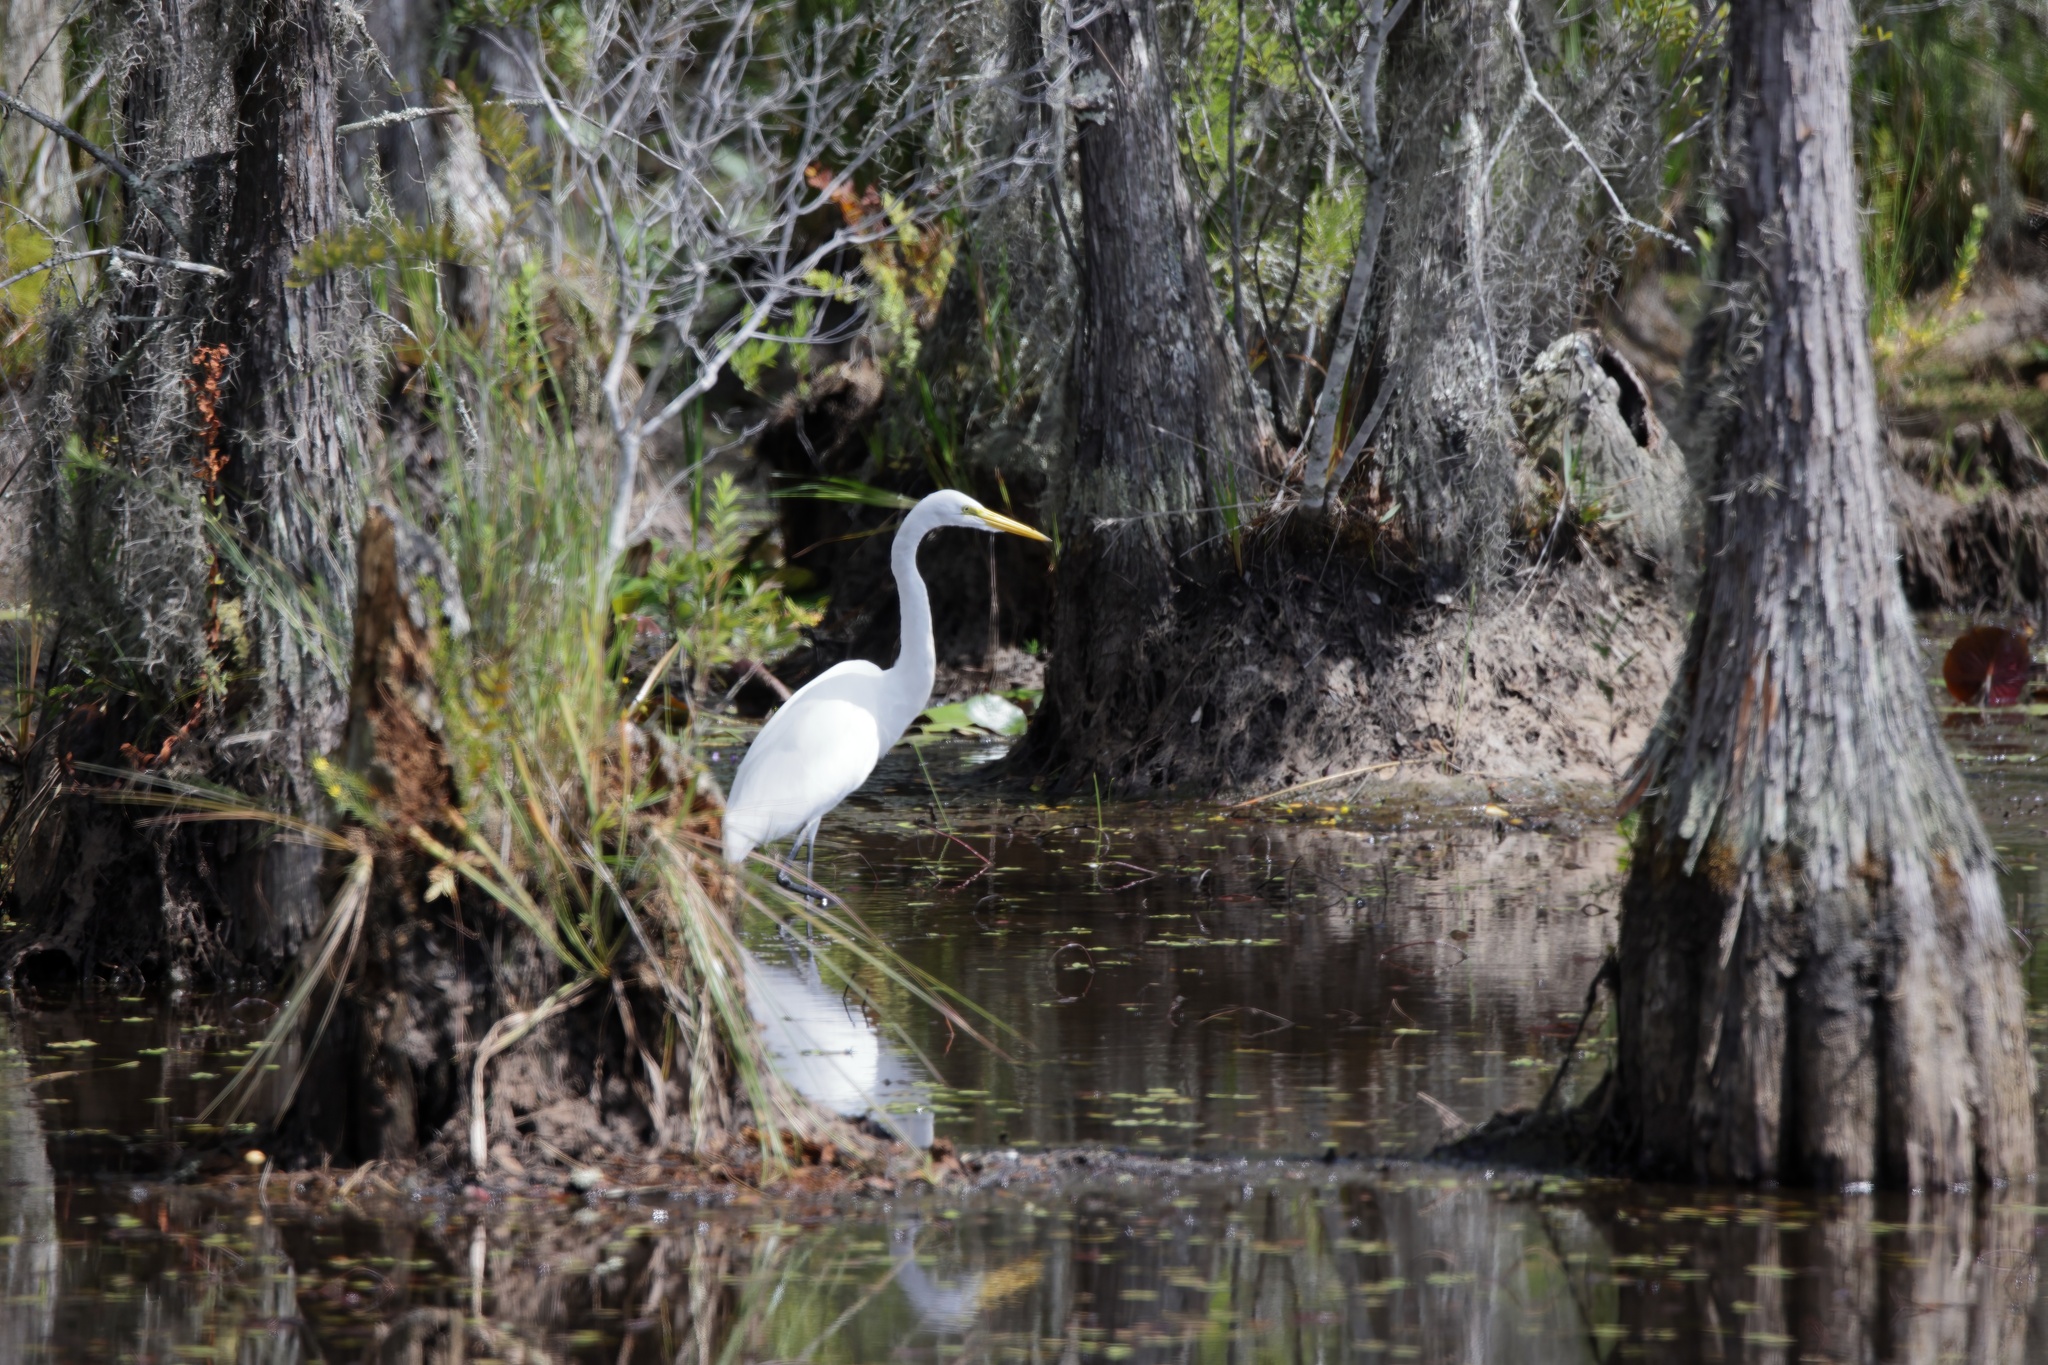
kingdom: Animalia
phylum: Chordata
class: Aves
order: Pelecaniformes
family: Ardeidae
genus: Ardea
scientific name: Ardea alba
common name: Great egret
